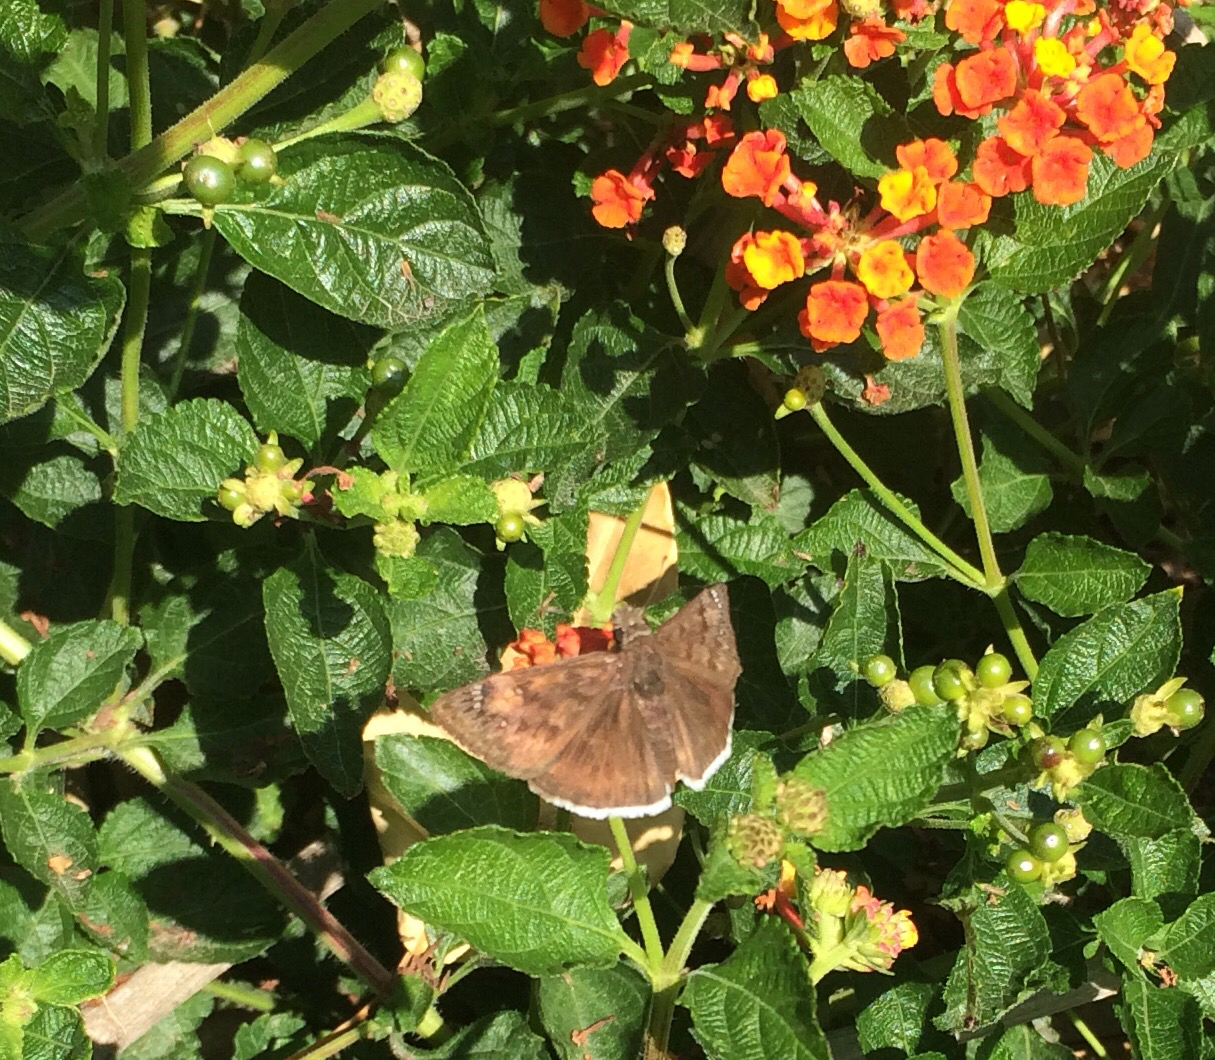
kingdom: Animalia
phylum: Arthropoda
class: Insecta
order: Lepidoptera
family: Hesperiidae
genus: Erynnis
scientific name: Erynnis funeralis
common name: Funereal duskywing
